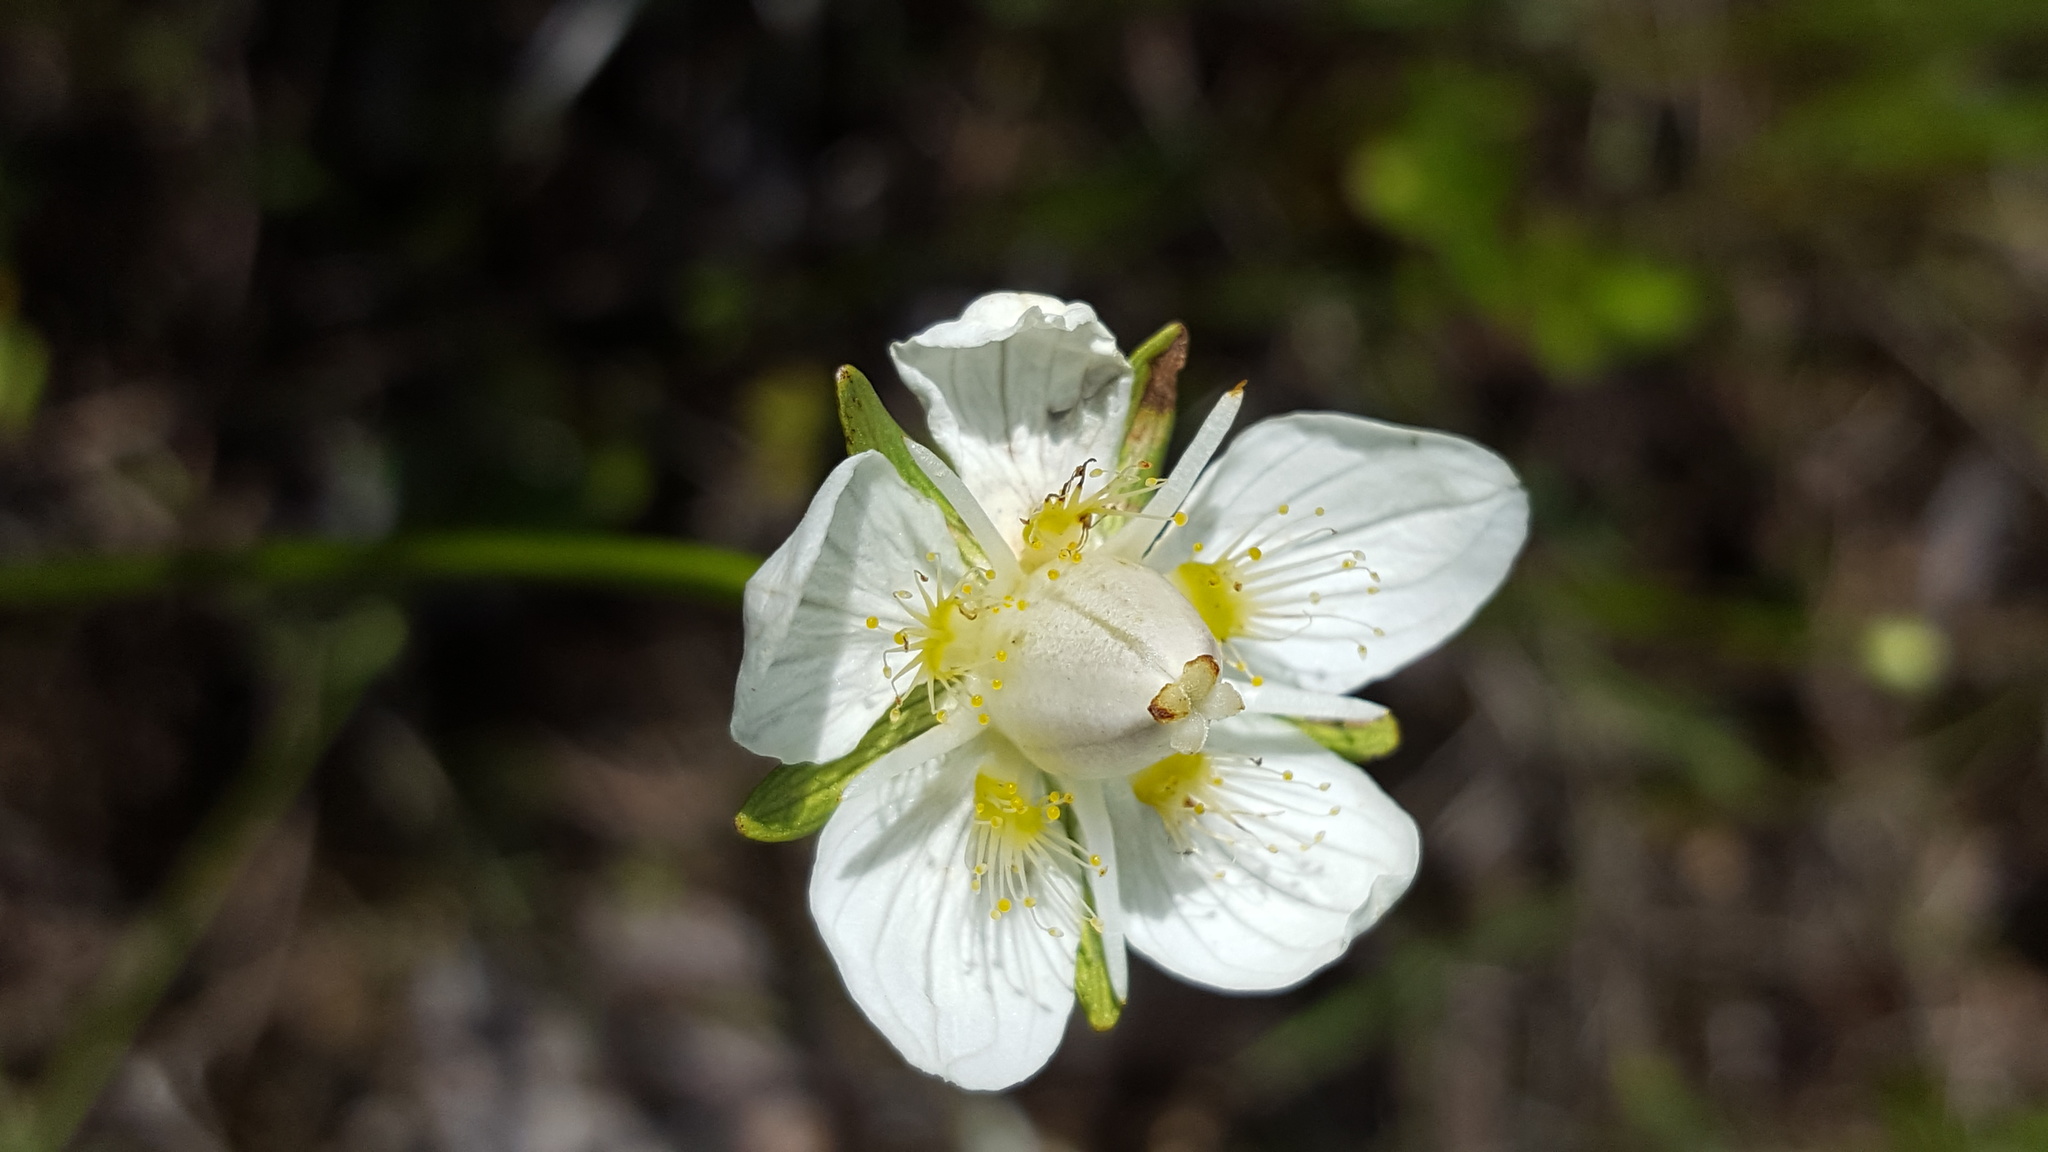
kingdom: Plantae
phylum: Tracheophyta
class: Magnoliopsida
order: Celastrales
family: Parnassiaceae
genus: Parnassia
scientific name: Parnassia palustris
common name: Grass-of-parnassus
